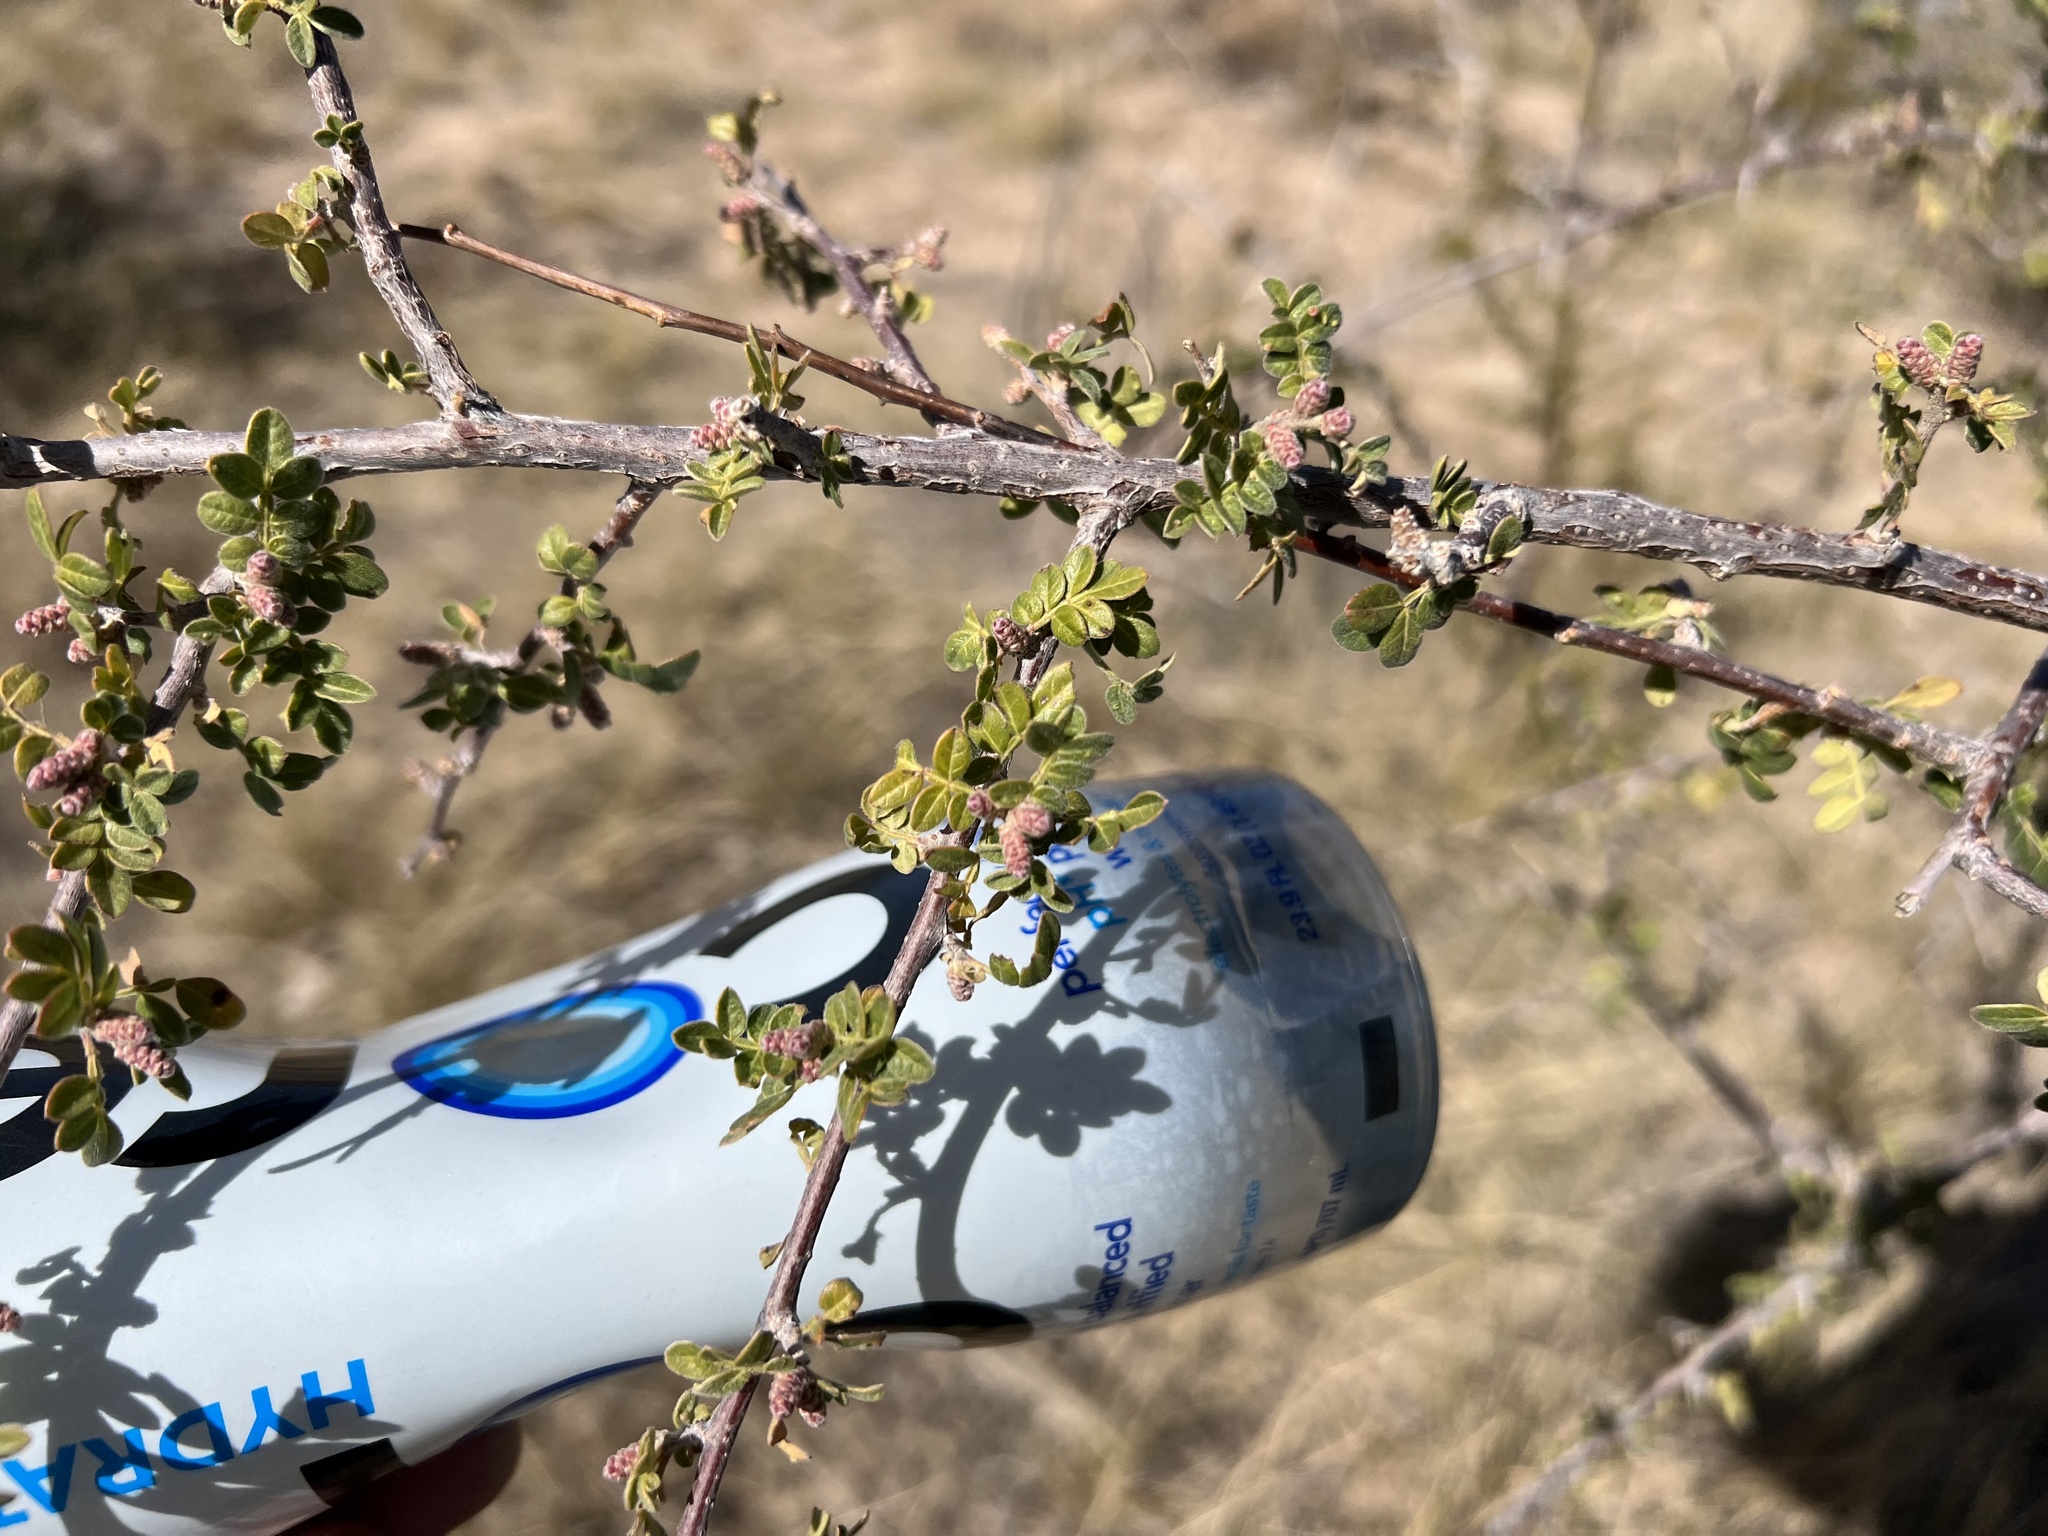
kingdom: Plantae
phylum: Tracheophyta
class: Magnoliopsida
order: Sapindales
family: Anacardiaceae
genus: Rhus
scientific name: Rhus microphylla
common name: Desert sumac
